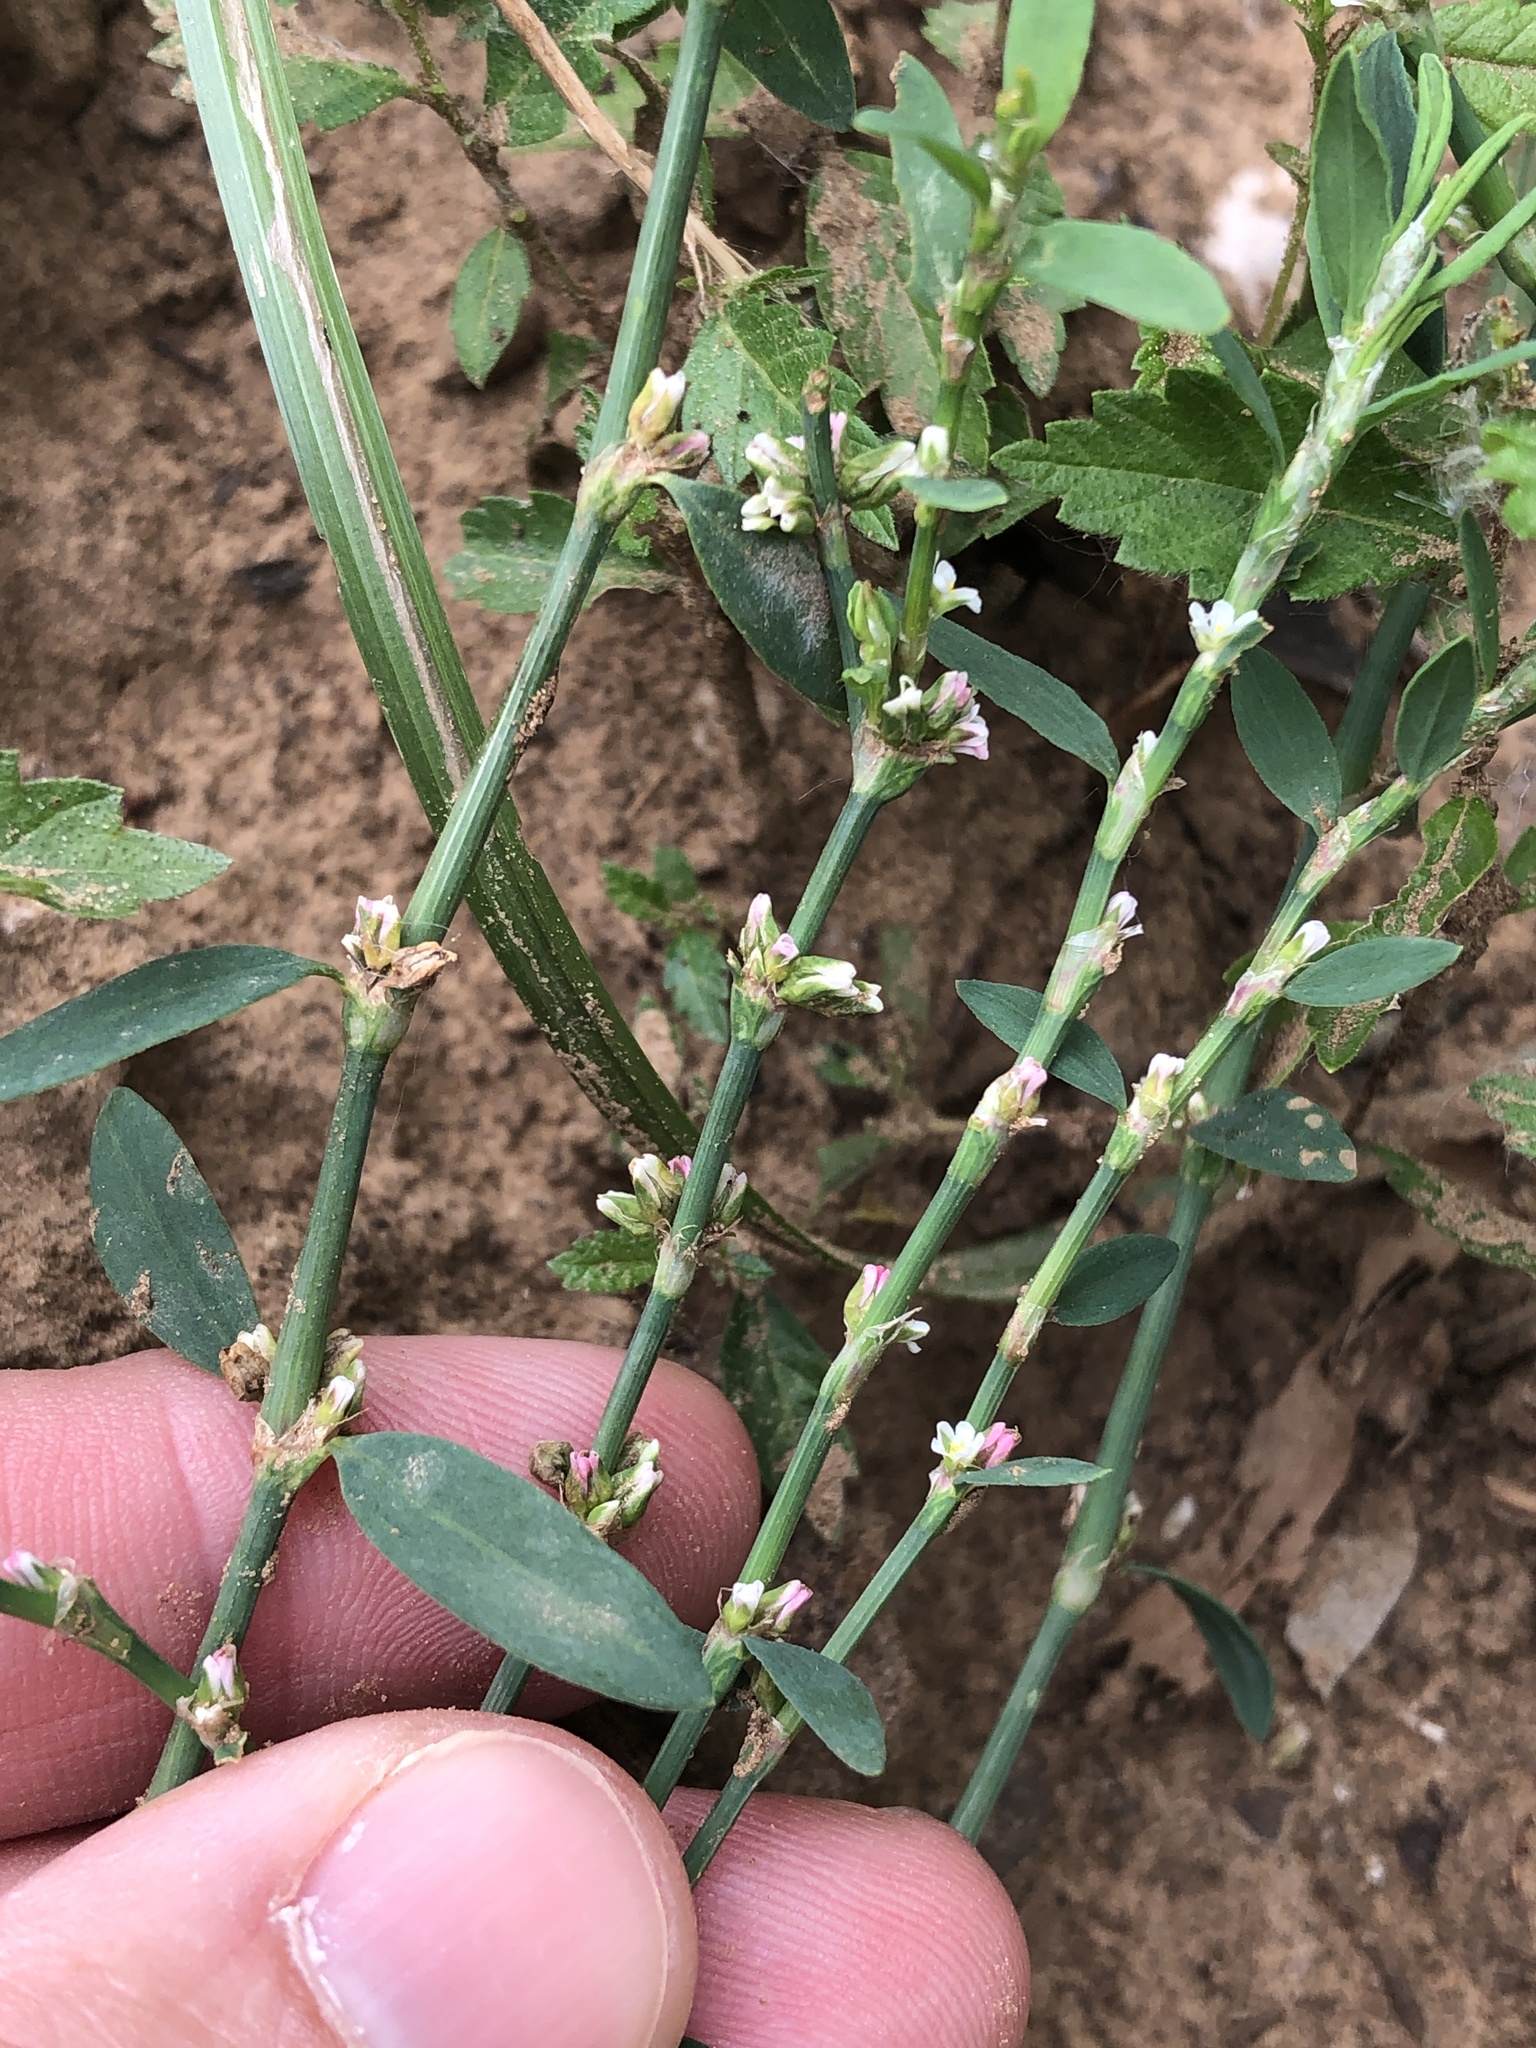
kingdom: Plantae
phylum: Tracheophyta
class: Magnoliopsida
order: Caryophyllales
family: Polygonaceae
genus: Polygonum
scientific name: Polygonum aviculare
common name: Prostrate knotweed
